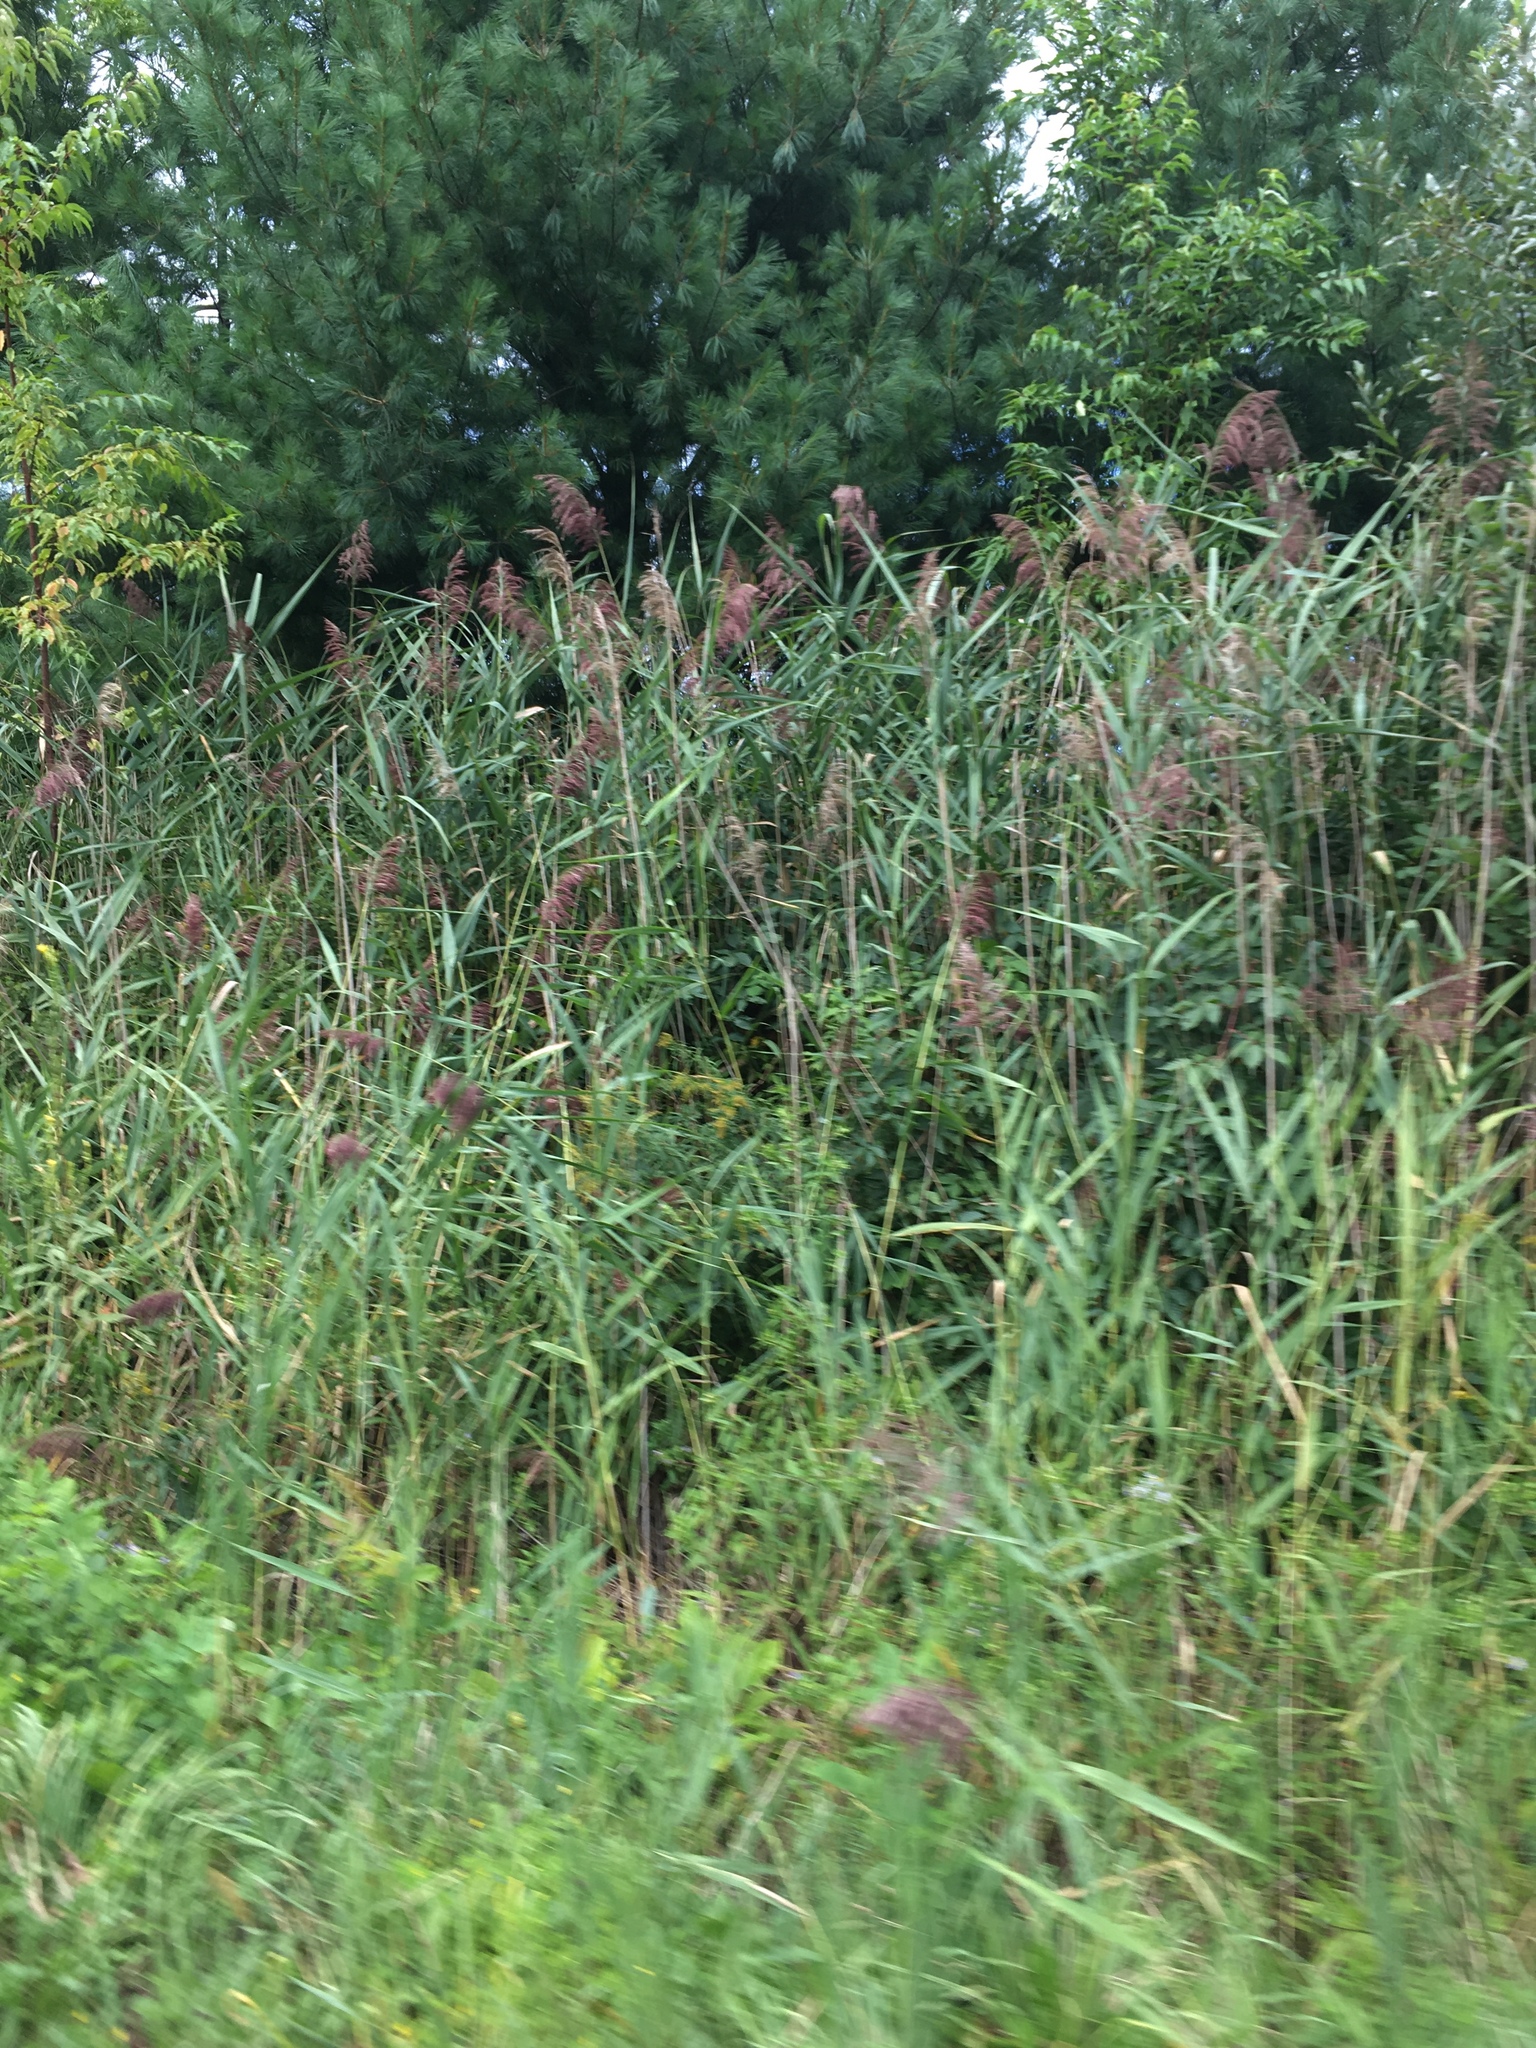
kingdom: Plantae
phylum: Tracheophyta
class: Liliopsida
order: Poales
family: Poaceae
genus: Phragmites
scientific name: Phragmites australis
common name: Common reed
